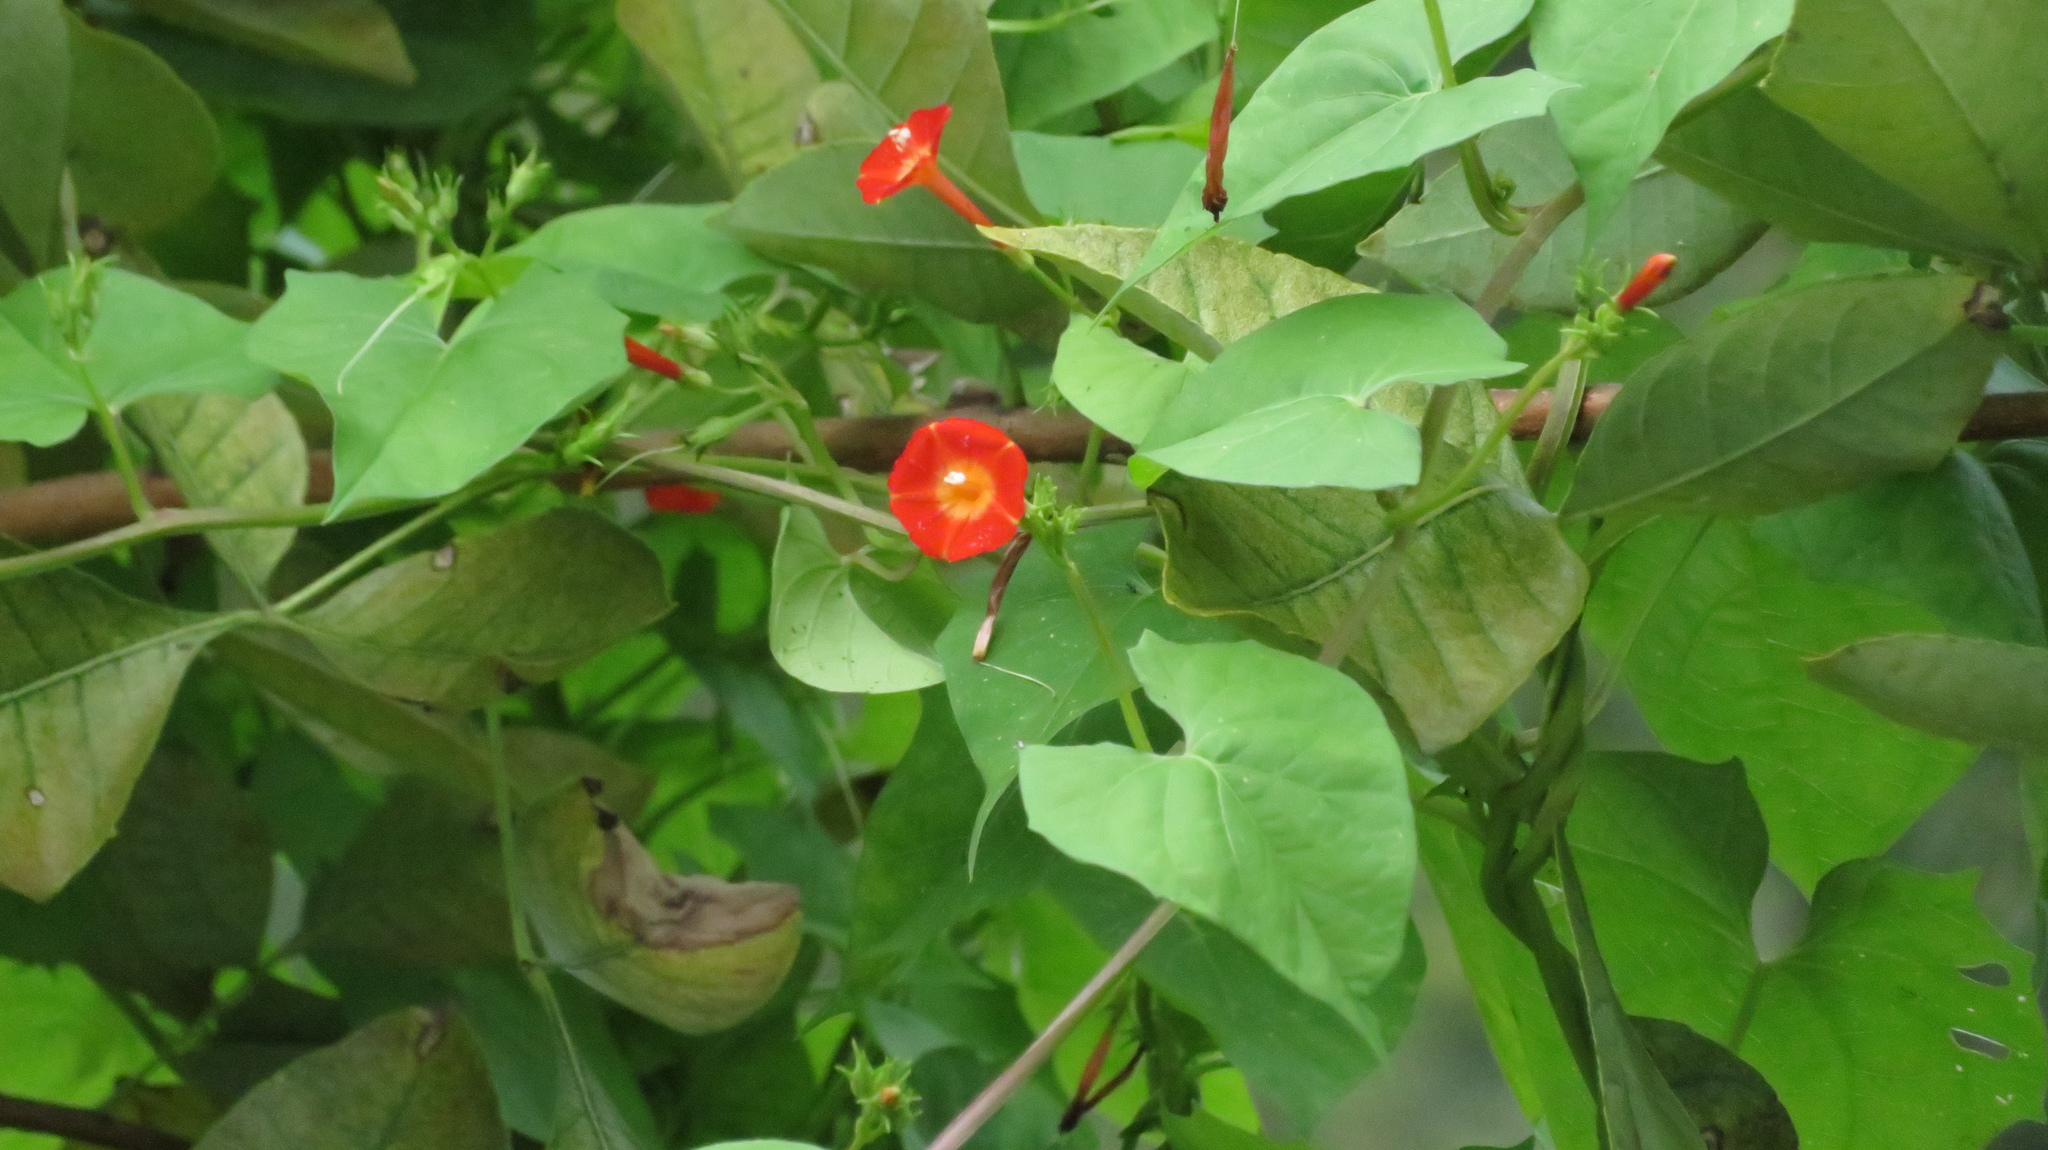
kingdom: Plantae
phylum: Tracheophyta
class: Magnoliopsida
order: Solanales
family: Convolvulaceae
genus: Ipomoea
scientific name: Ipomoea coccinea
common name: Red morning-glory
